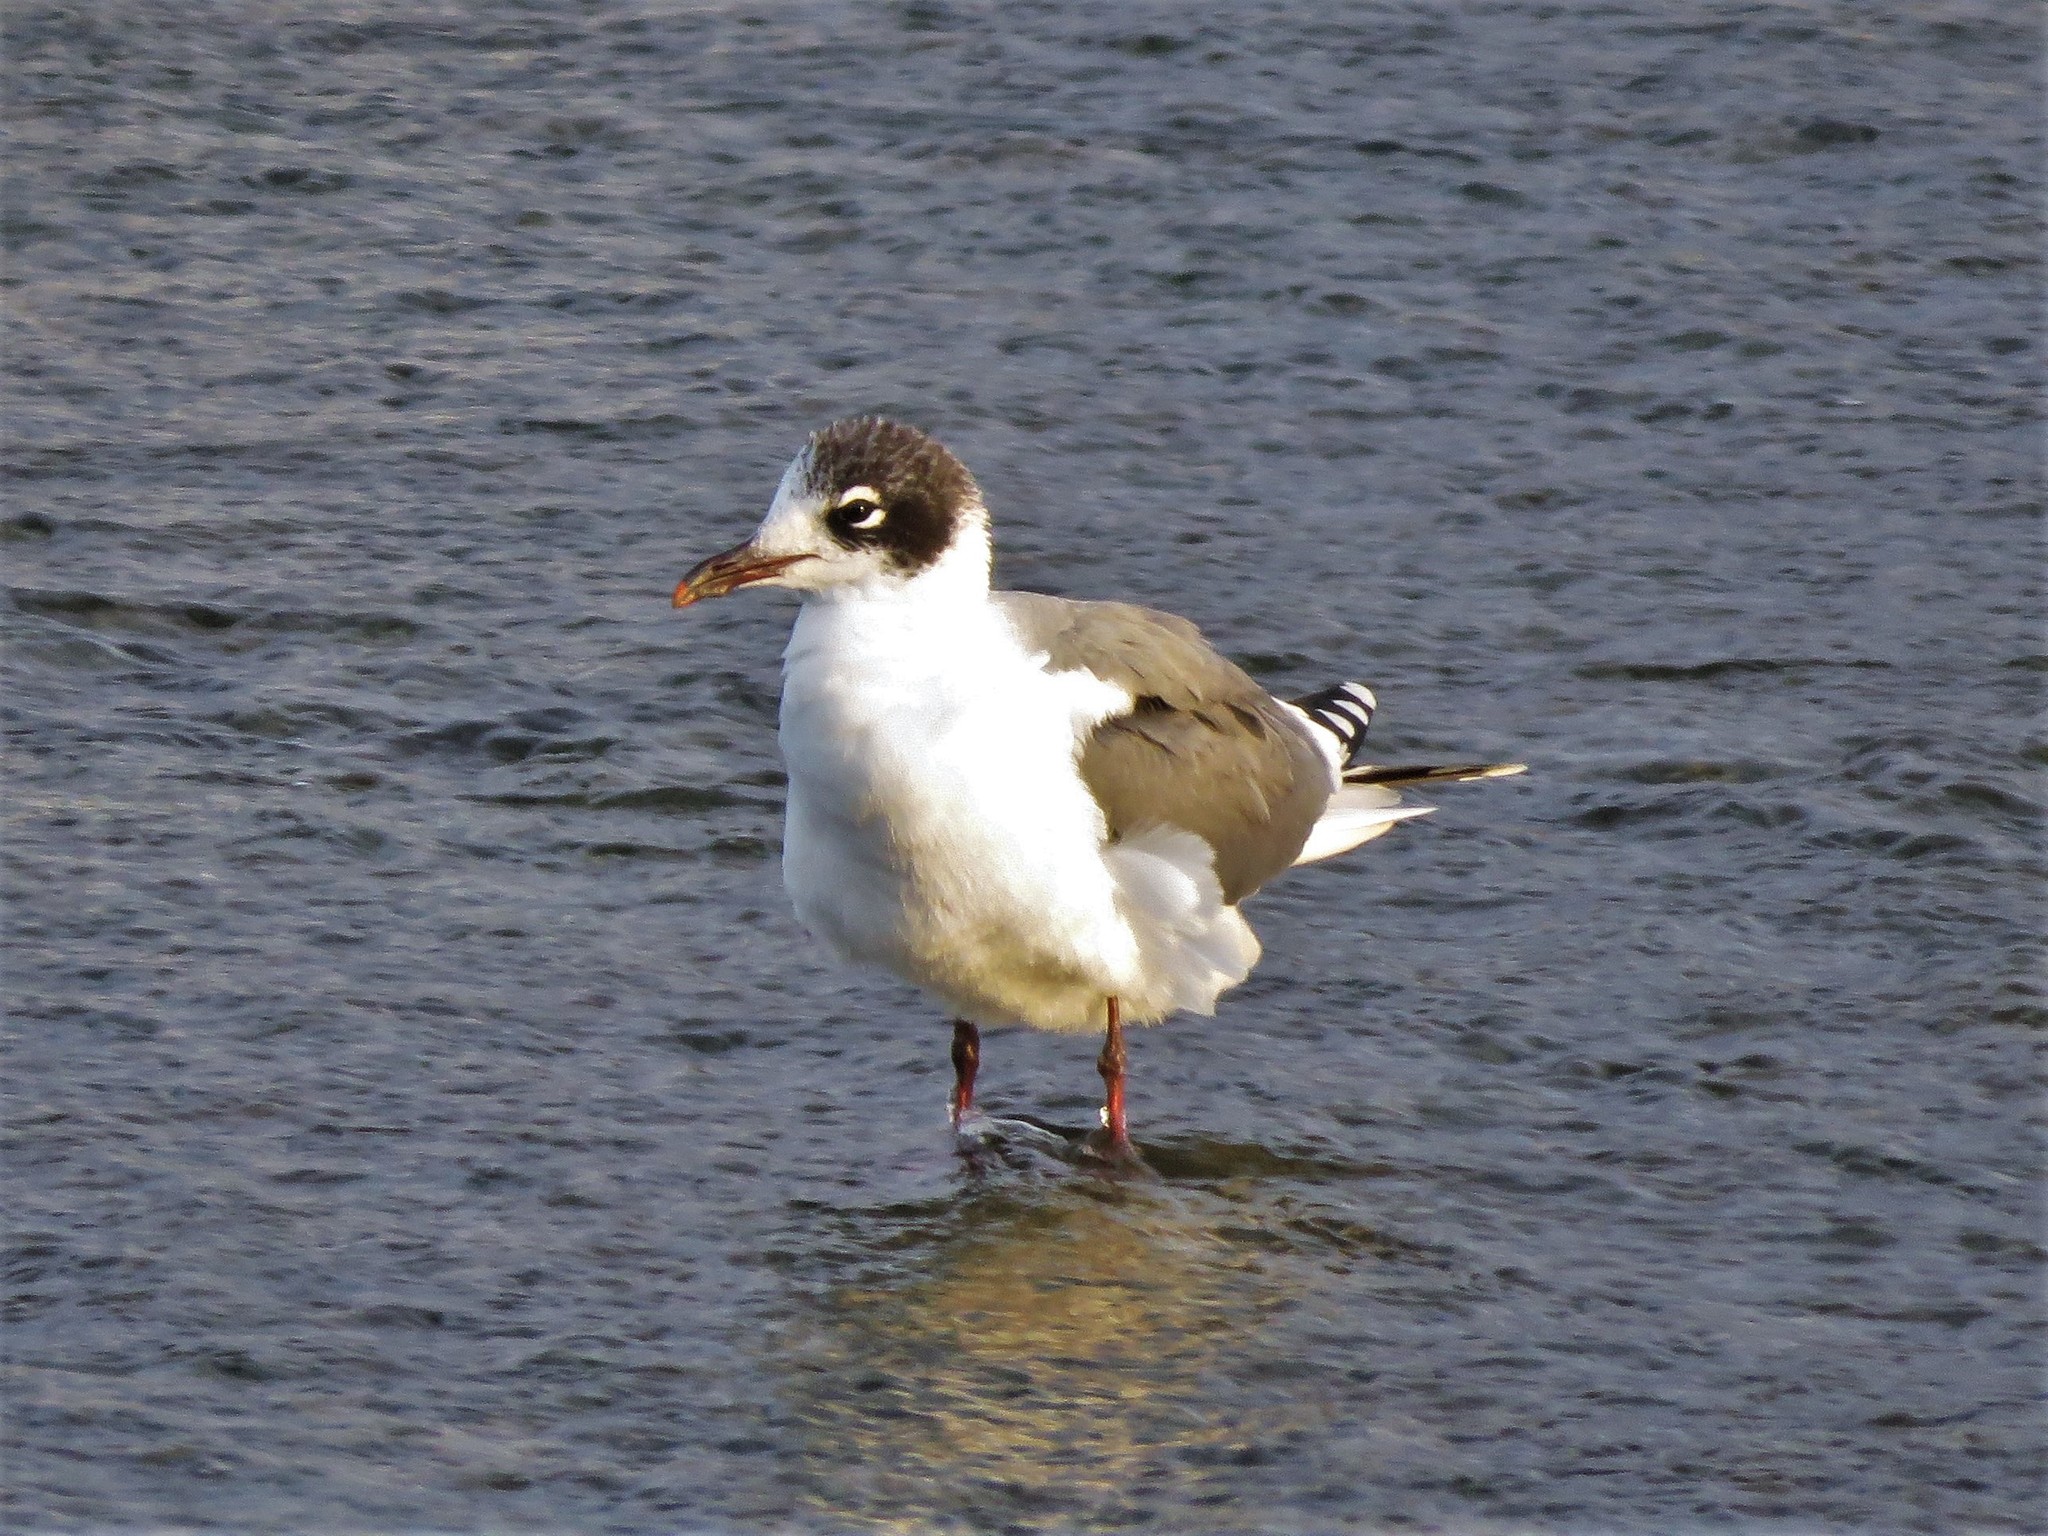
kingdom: Animalia
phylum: Chordata
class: Aves
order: Charadriiformes
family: Laridae
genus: Leucophaeus
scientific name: Leucophaeus pipixcan
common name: Franklin's gull
